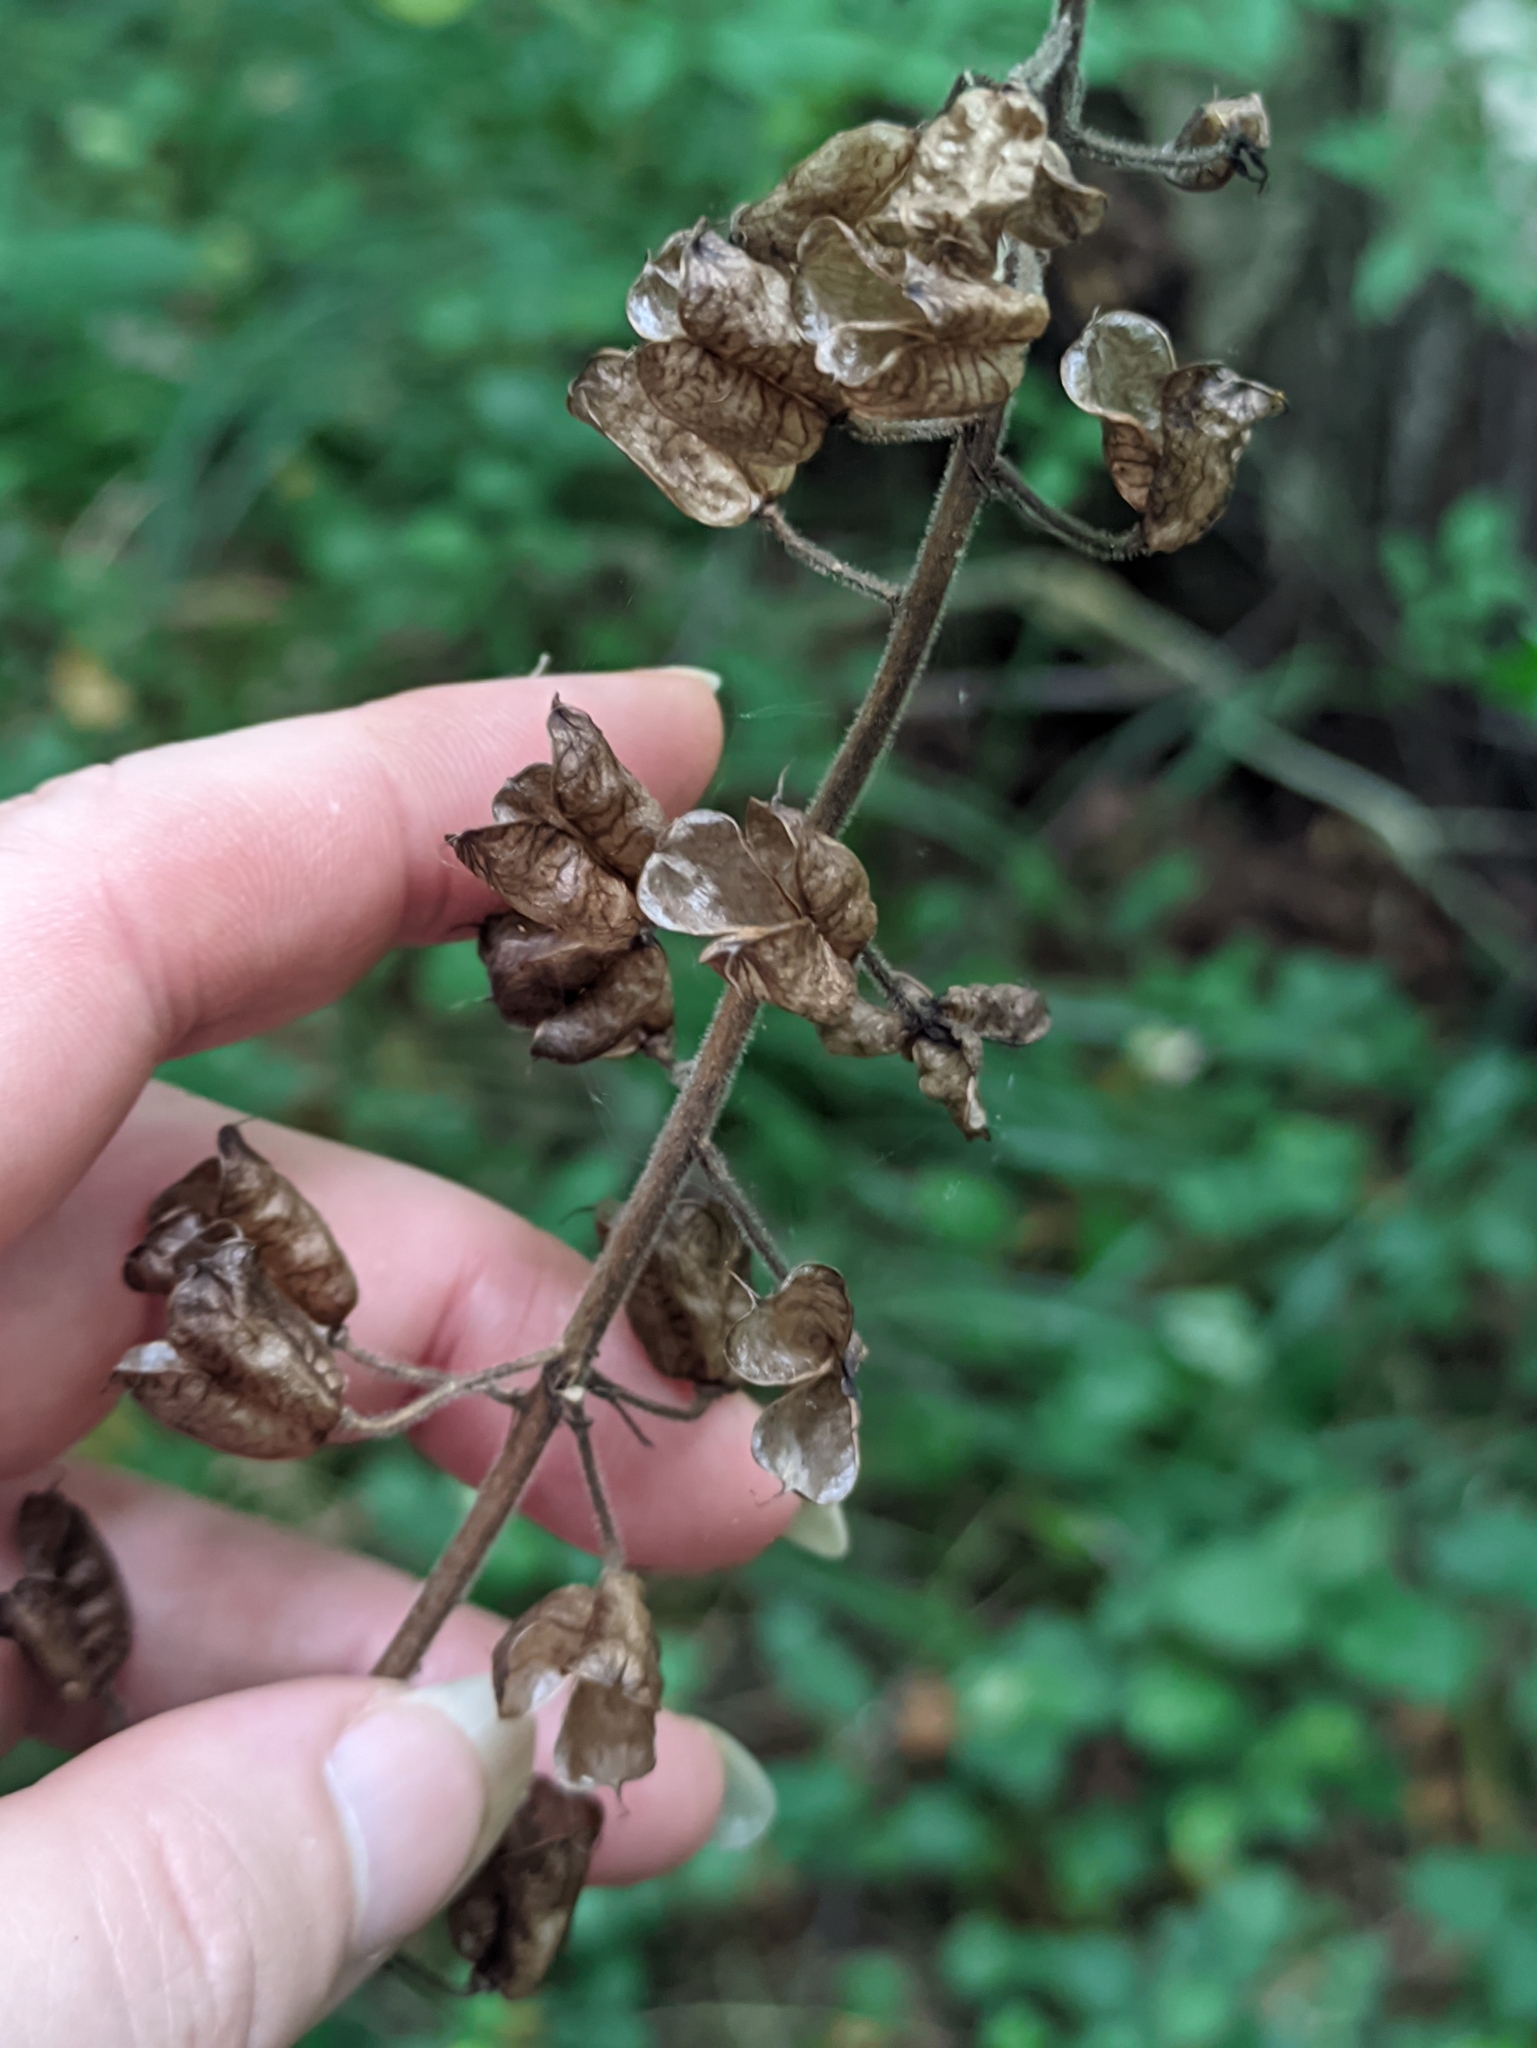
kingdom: Plantae
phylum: Tracheophyta
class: Magnoliopsida
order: Ranunculales
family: Ranunculaceae
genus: Aconitum
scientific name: Aconitum septentrionale
